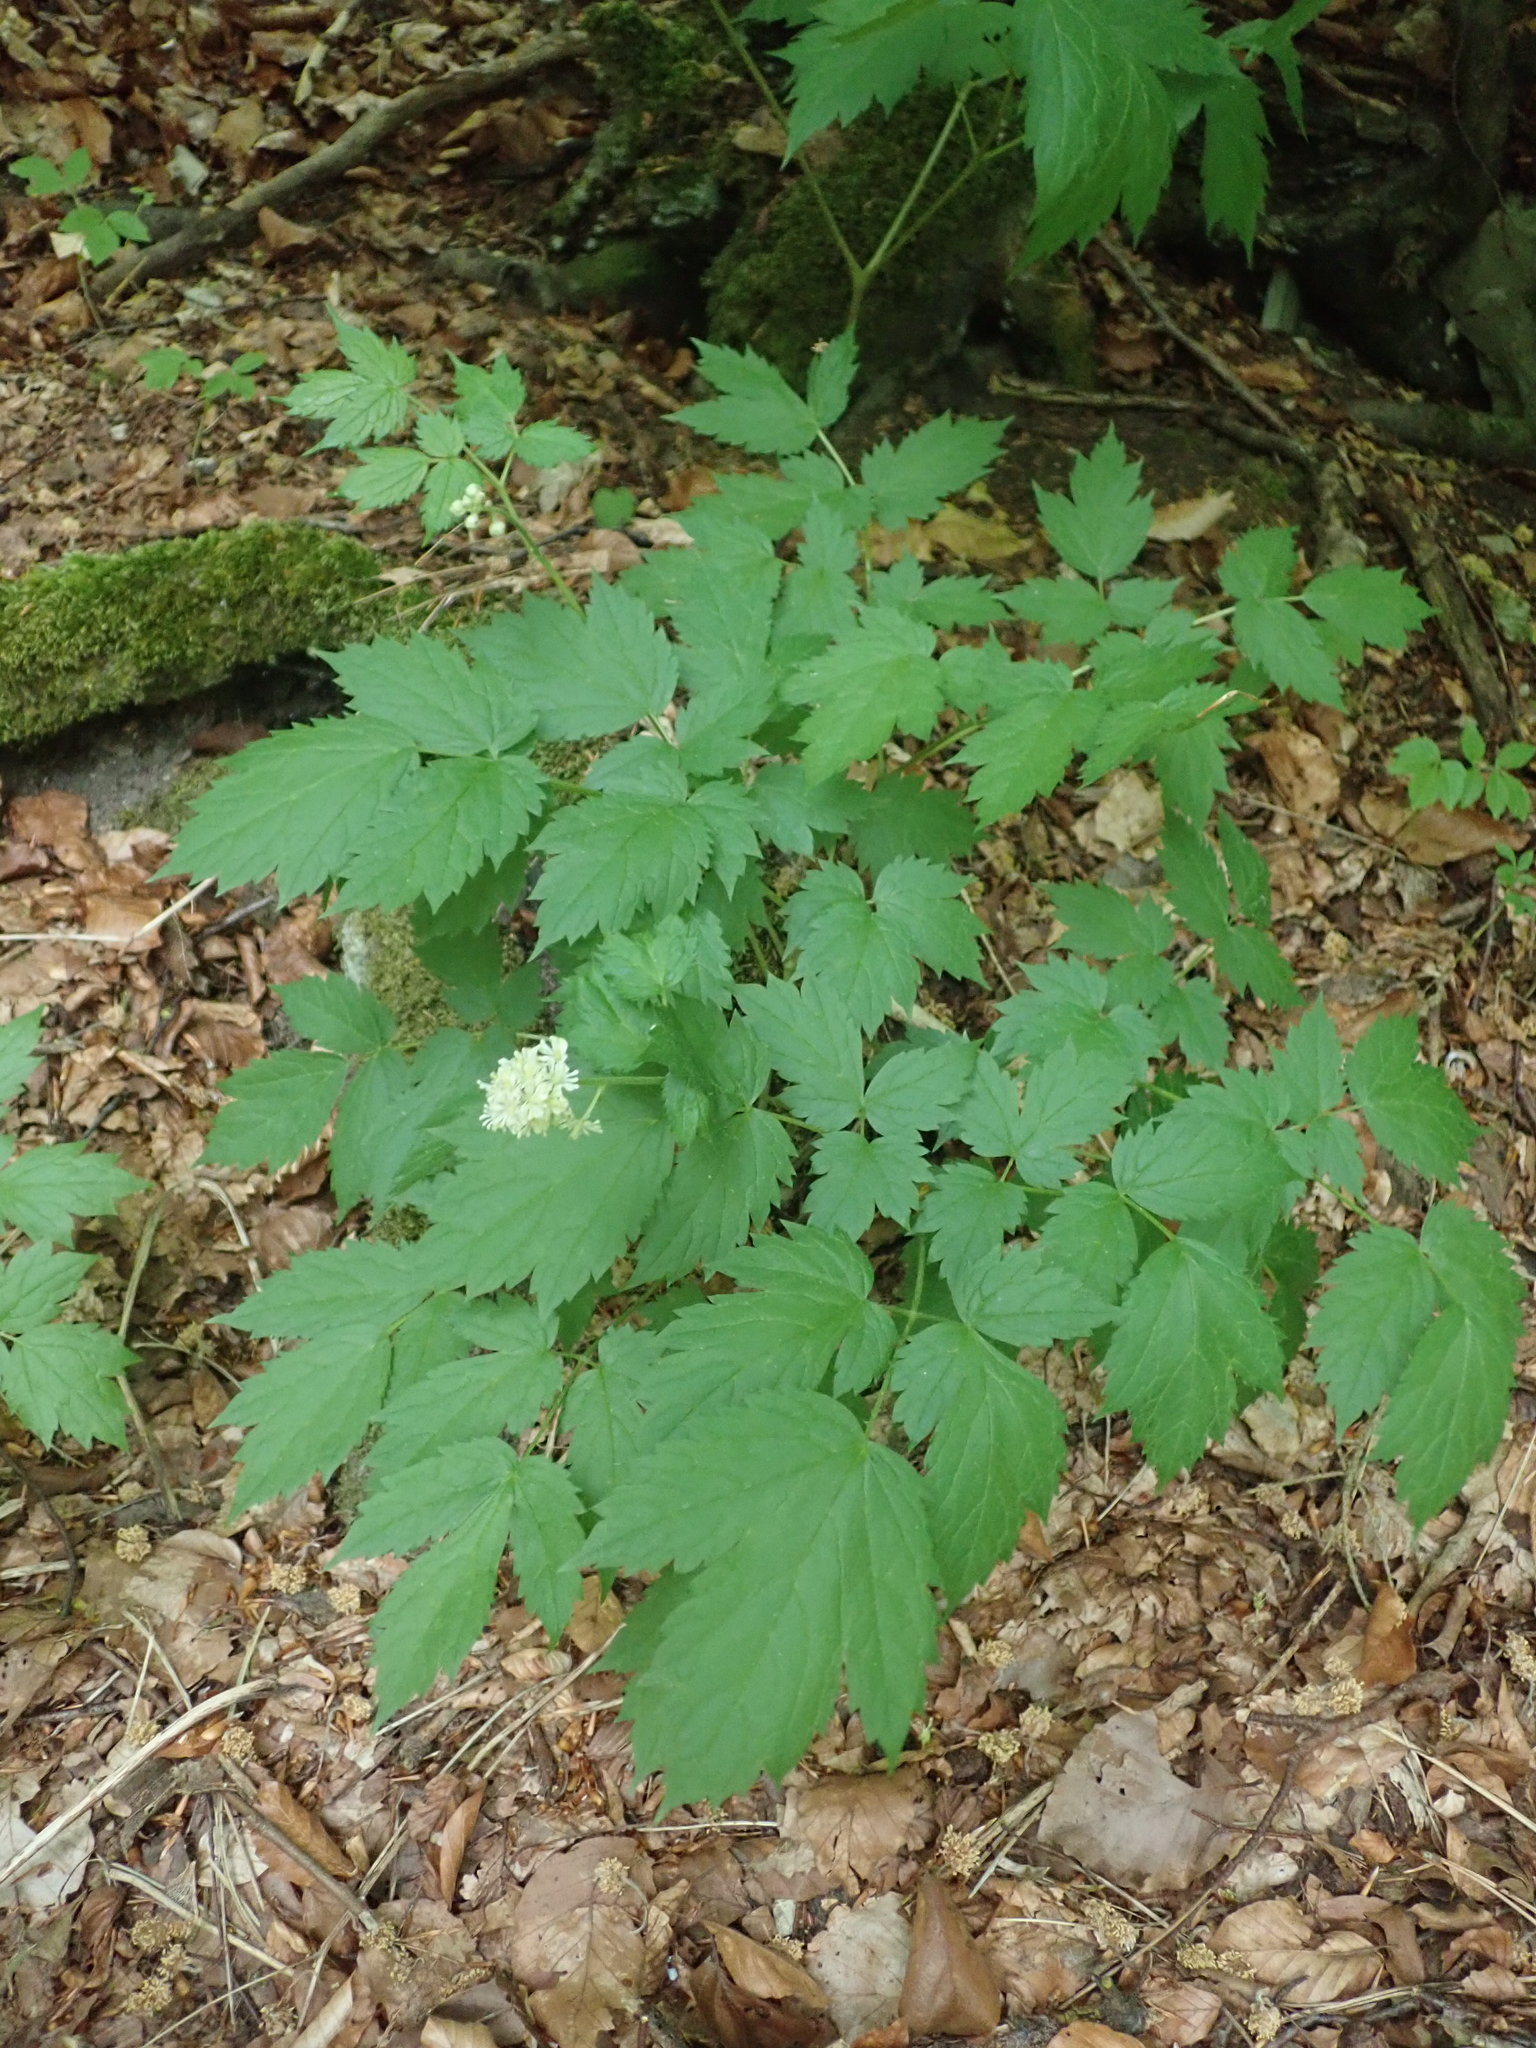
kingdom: Plantae
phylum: Tracheophyta
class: Magnoliopsida
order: Ranunculales
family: Ranunculaceae
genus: Actaea
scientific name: Actaea spicata
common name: Baneberry
